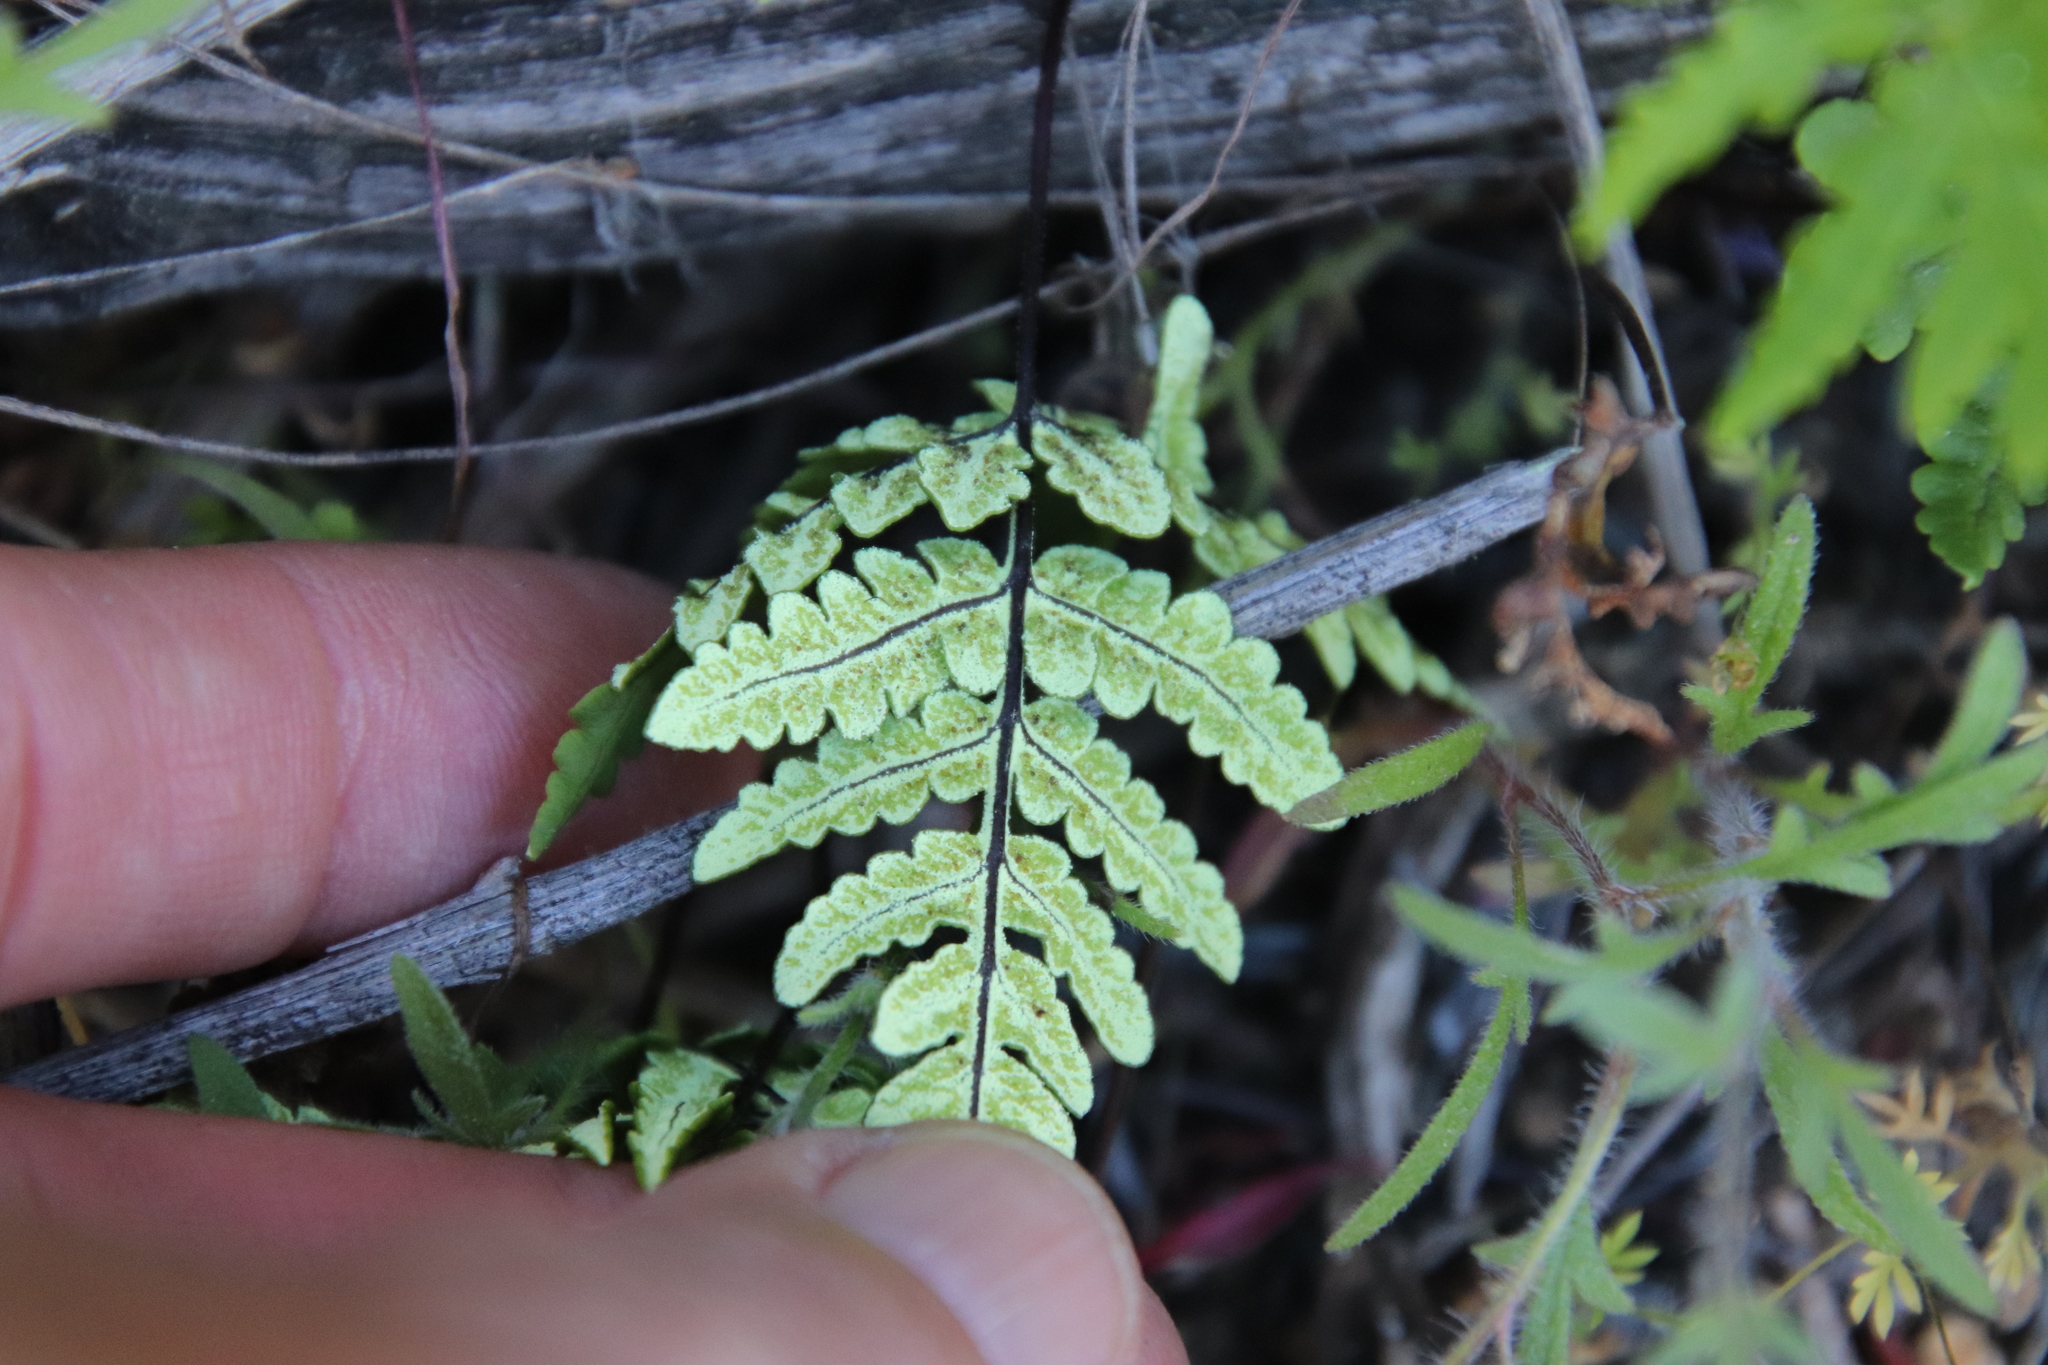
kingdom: Plantae
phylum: Tracheophyta
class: Polypodiopsida
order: Polypodiales
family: Pteridaceae
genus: Pentagramma
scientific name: Pentagramma triangularis
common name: Gold fern
